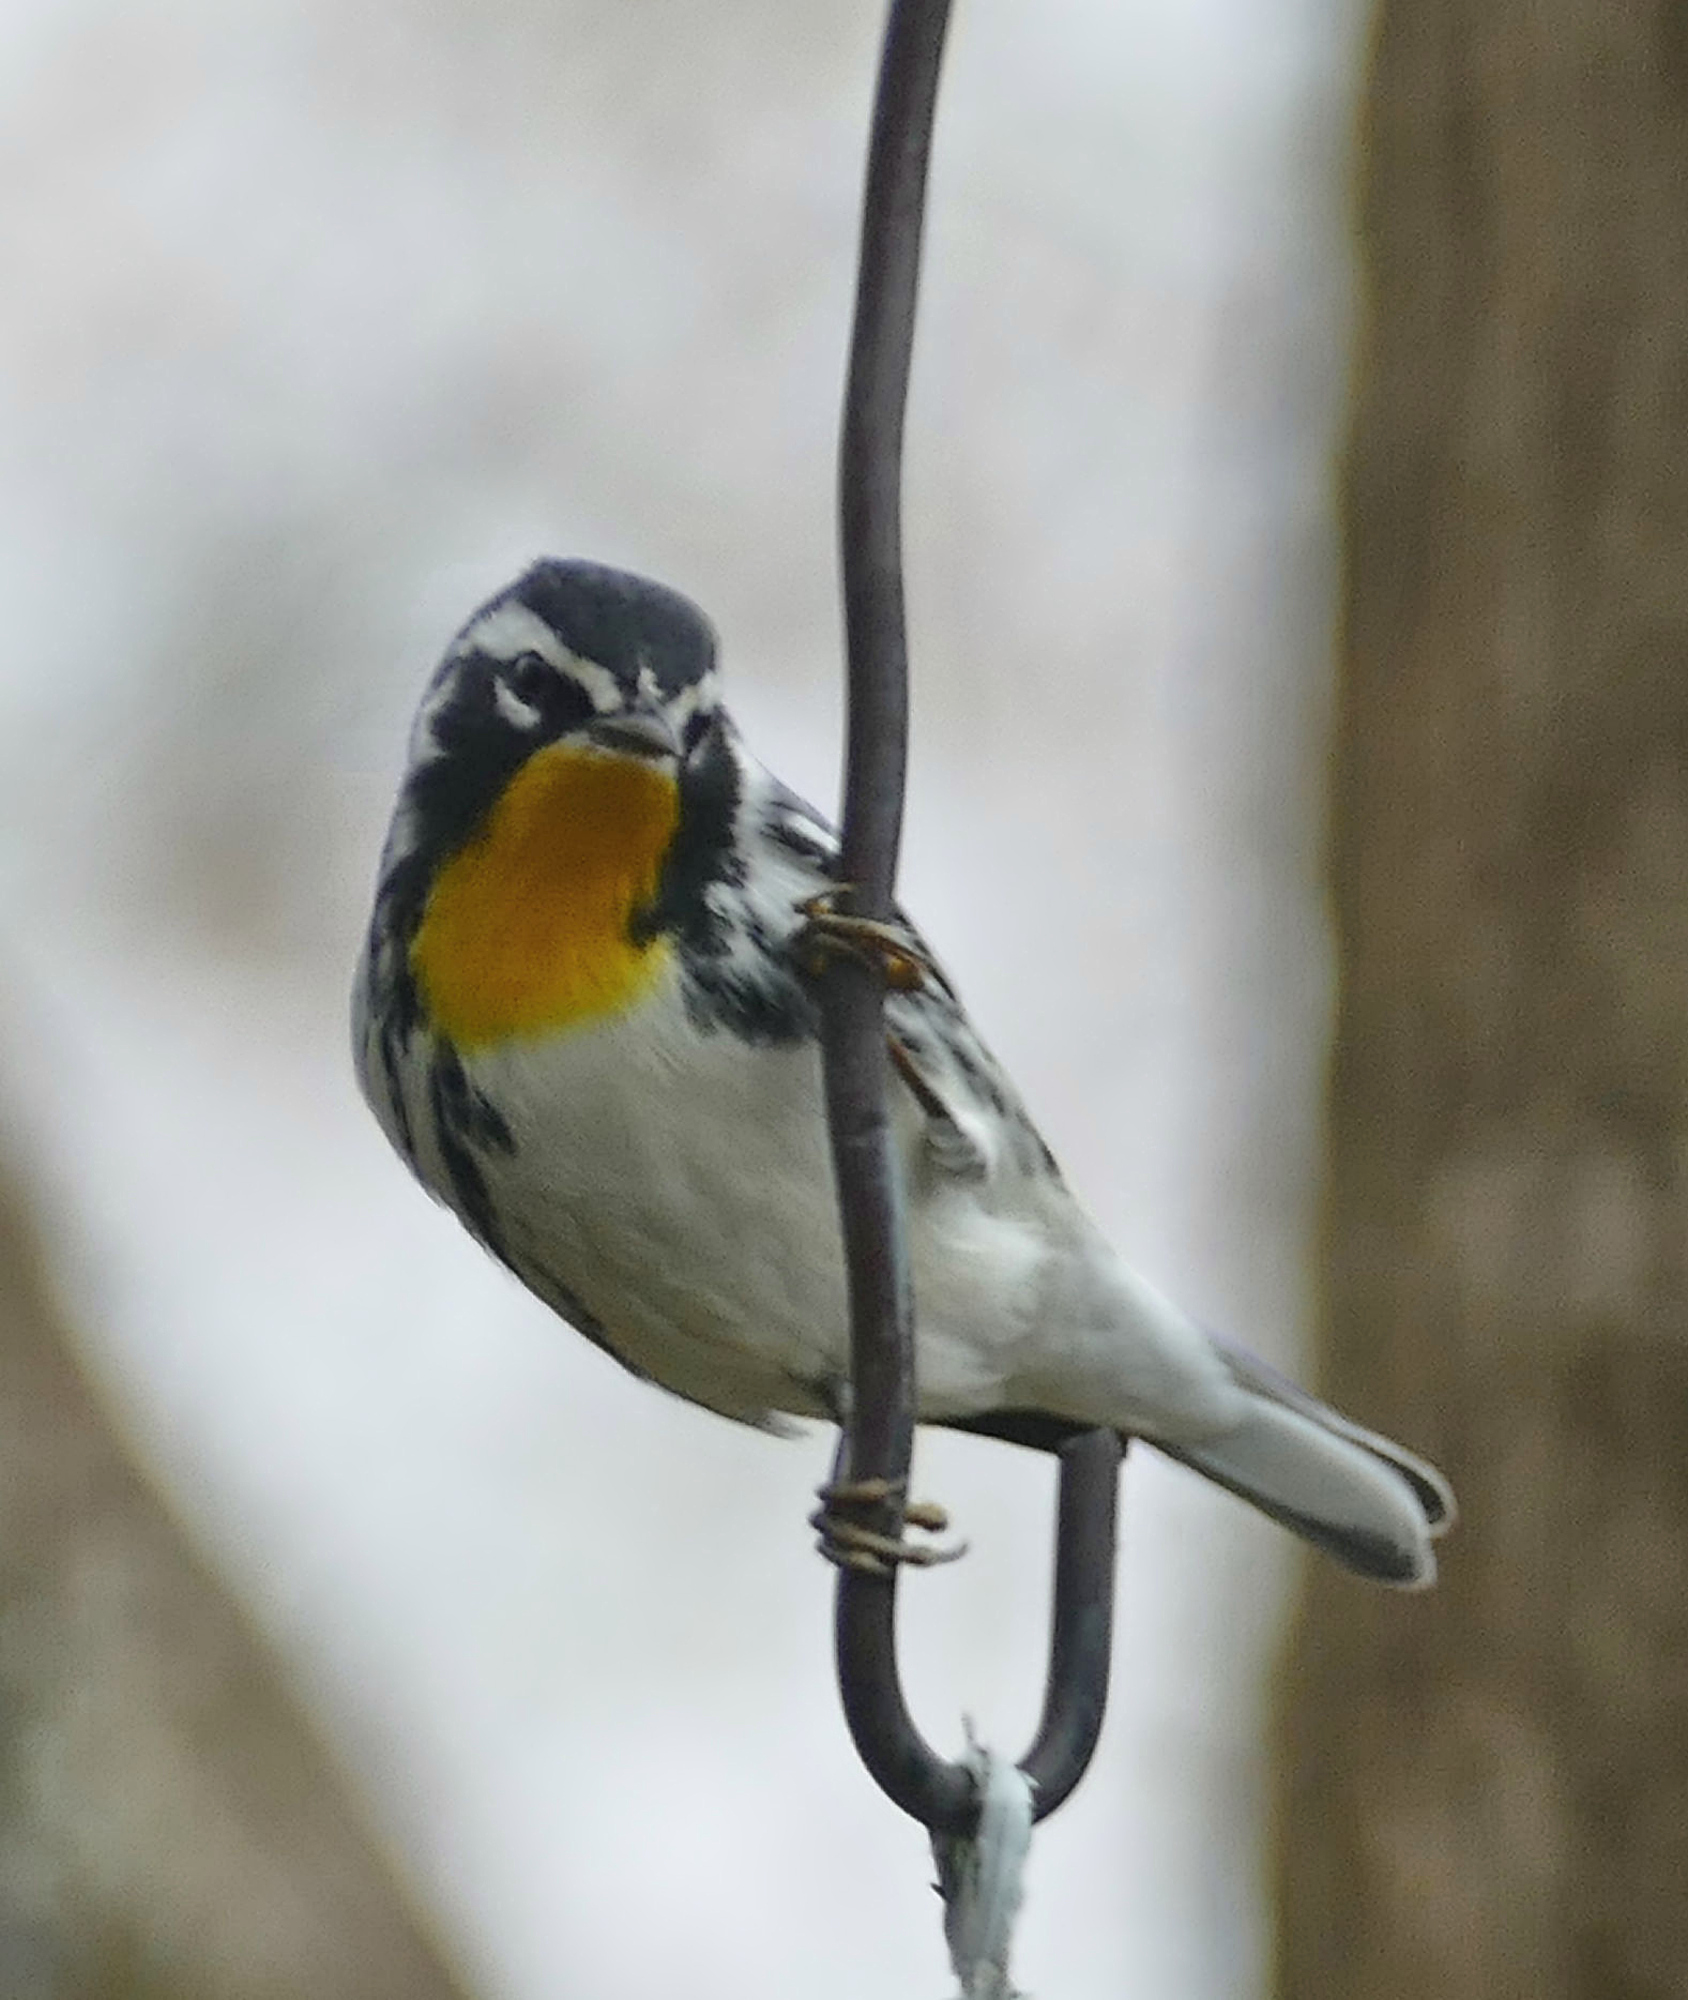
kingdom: Animalia
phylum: Chordata
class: Aves
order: Passeriformes
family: Parulidae
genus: Setophaga
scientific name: Setophaga dominica
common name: Yellow-throated warbler
